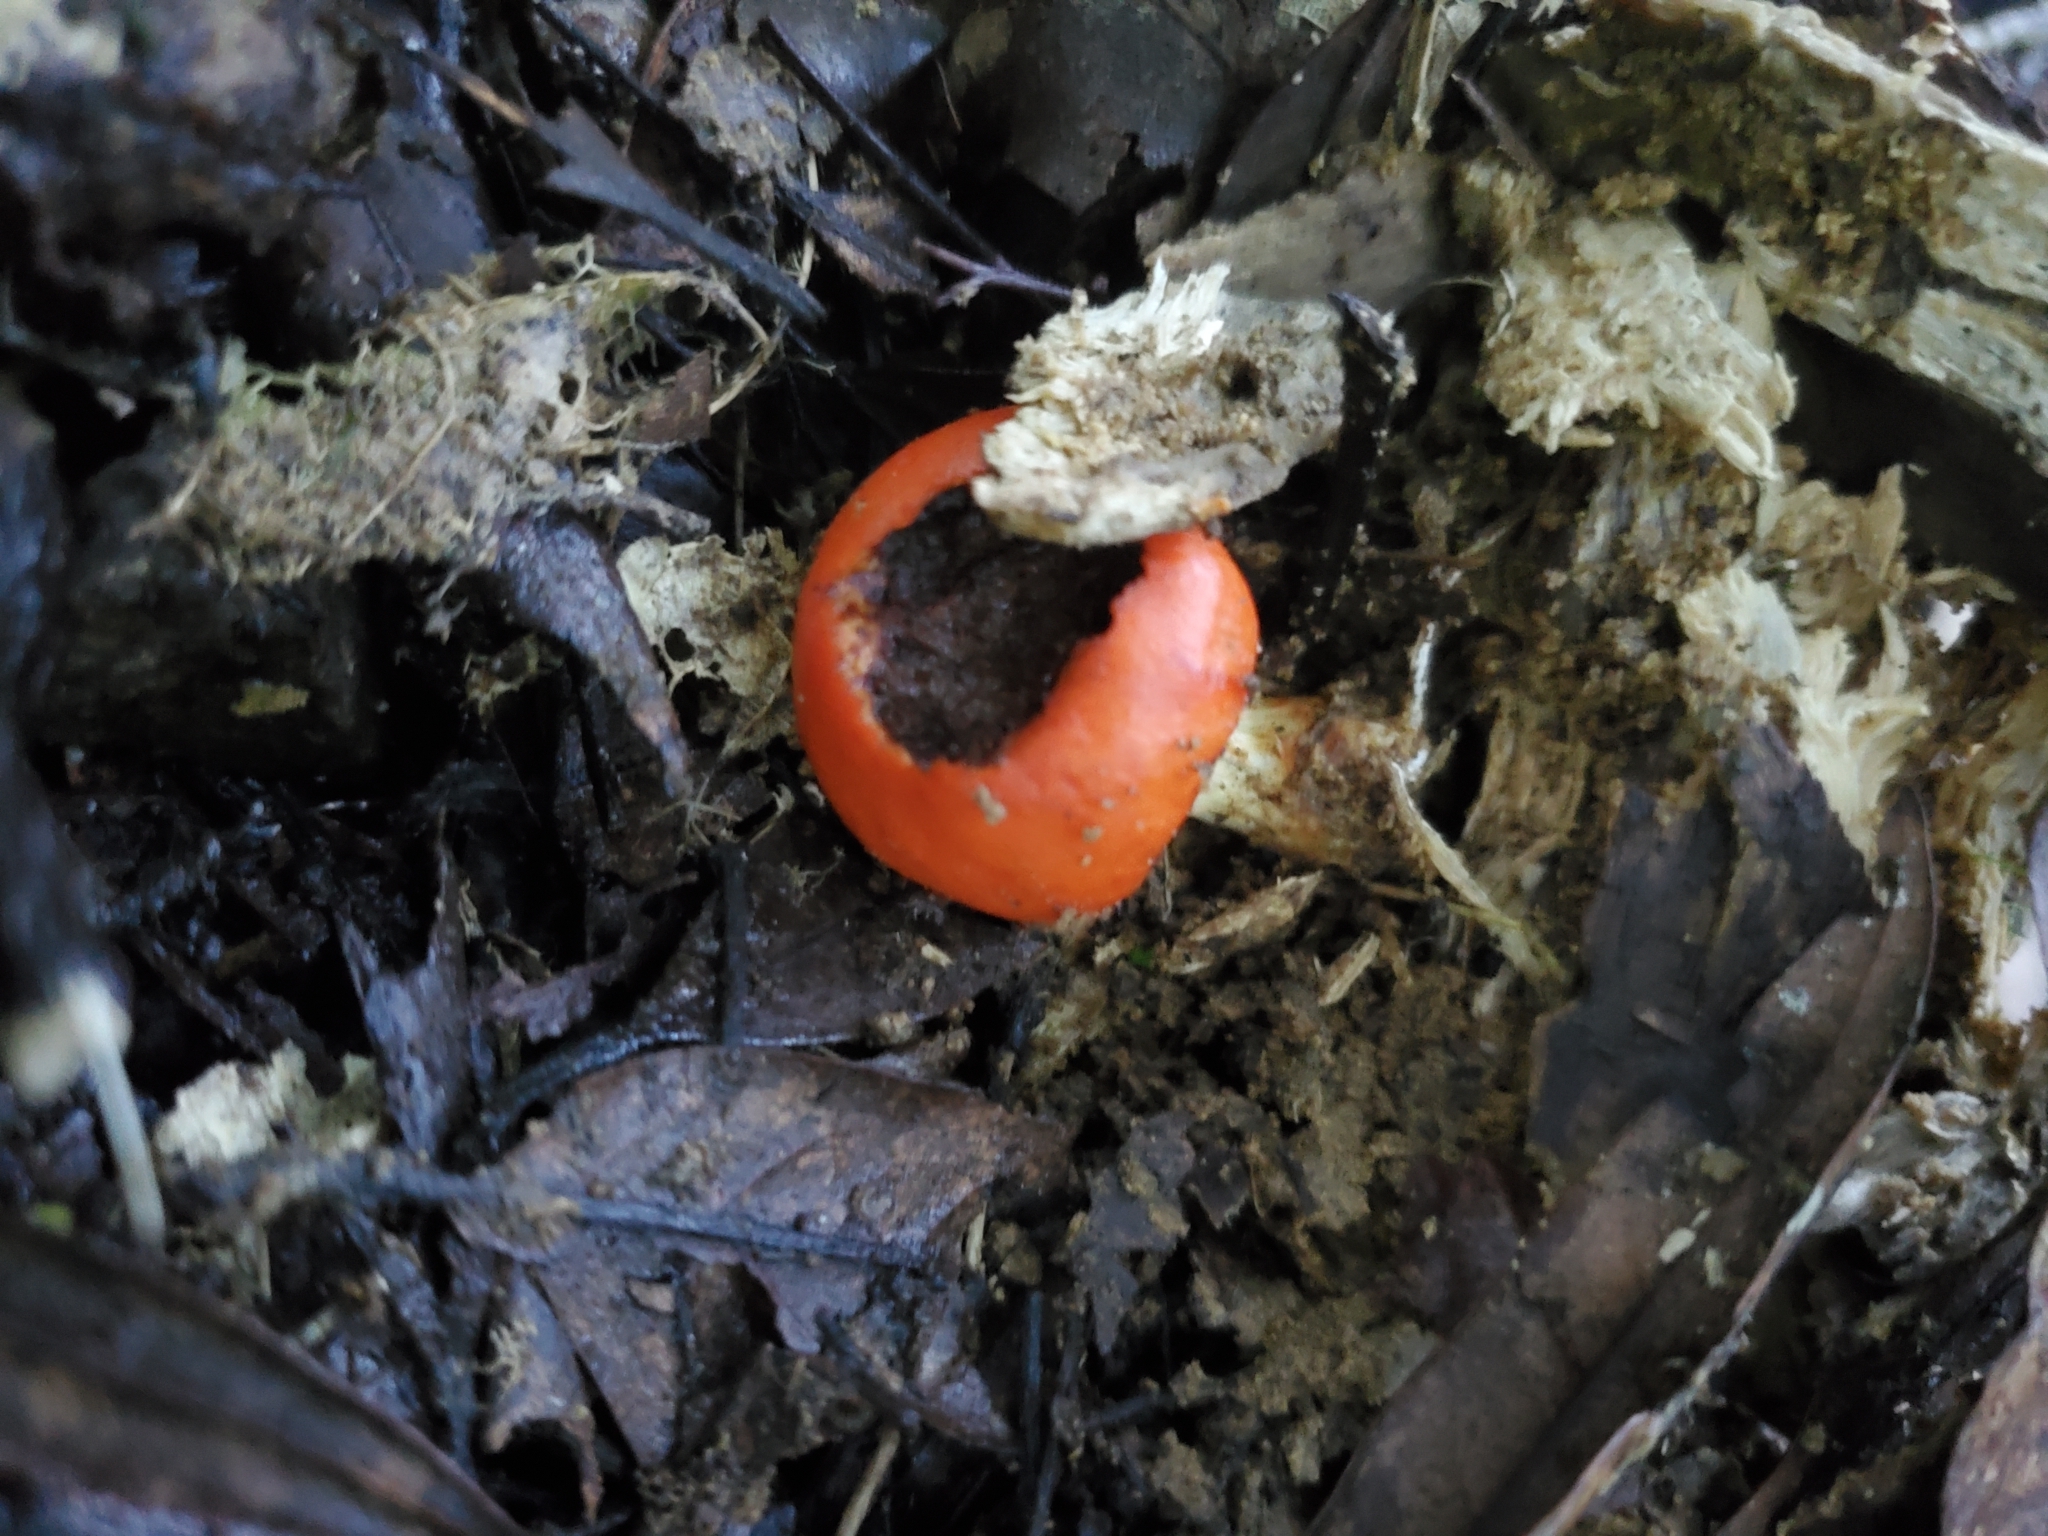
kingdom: Fungi
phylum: Basidiomycota
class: Agaricomycetes
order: Agaricales
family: Strophariaceae
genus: Leratiomyces
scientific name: Leratiomyces erythrocephalus
